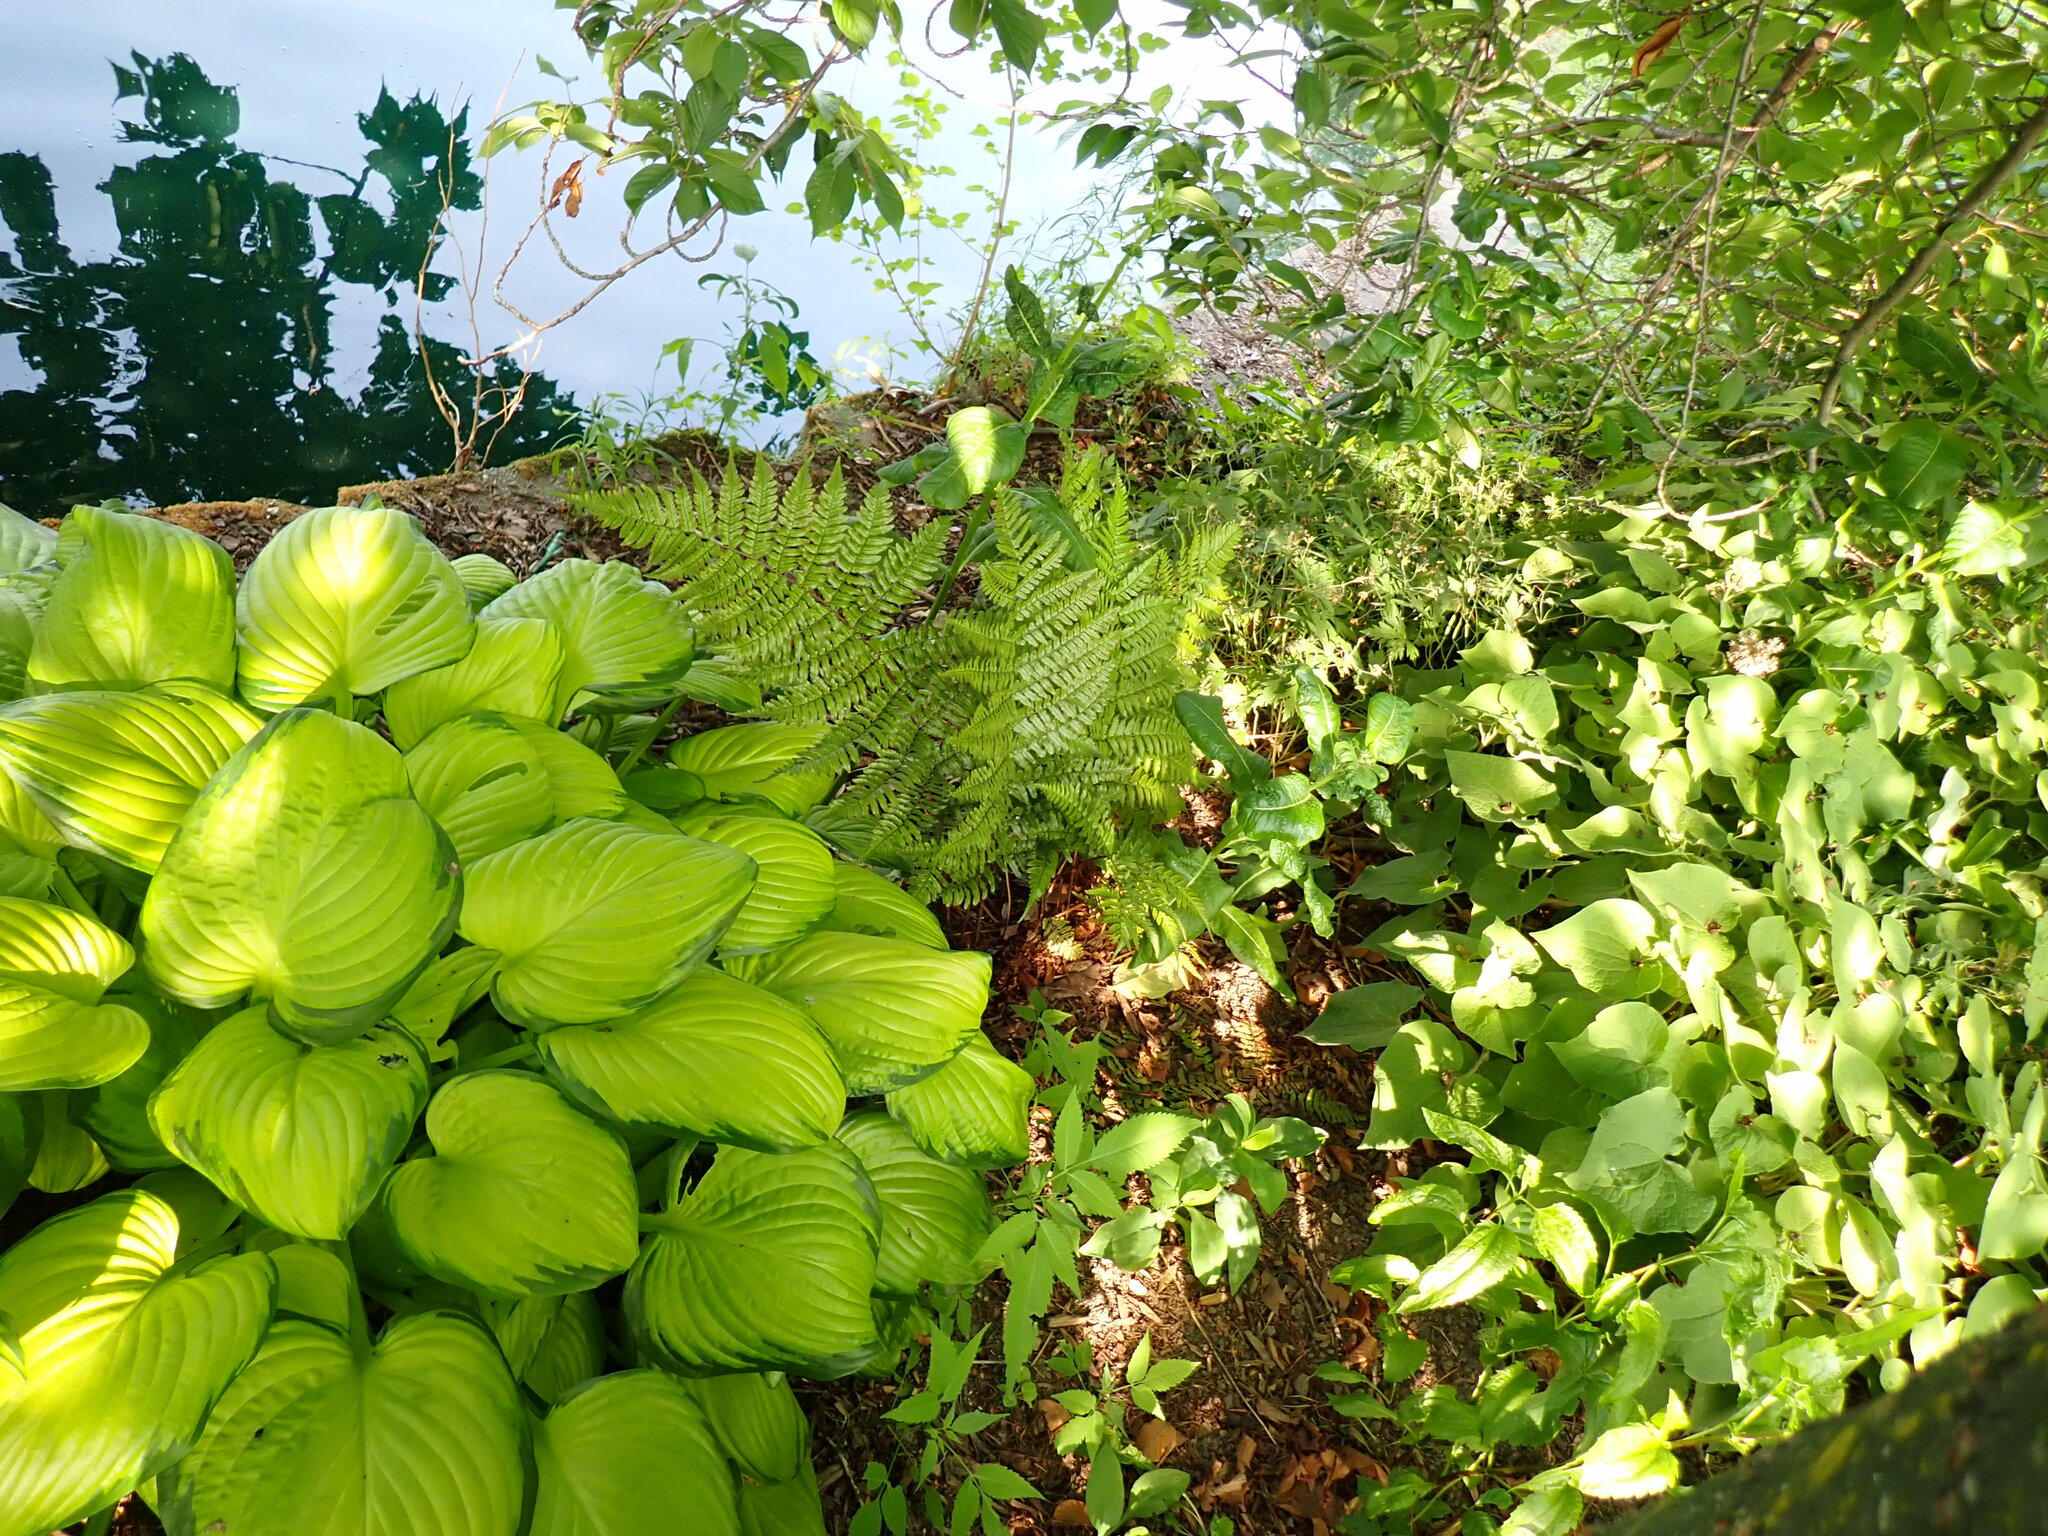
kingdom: Plantae
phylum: Tracheophyta
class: Polypodiopsida
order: Polypodiales
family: Dryopteridaceae
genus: Dryopteris
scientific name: Dryopteris erythrosora
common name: Autumn fern
